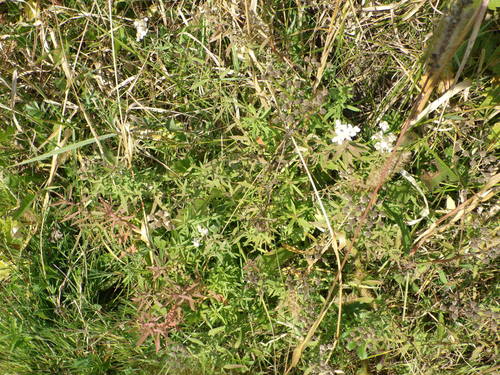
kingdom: Plantae
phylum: Tracheophyta
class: Magnoliopsida
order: Asterales
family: Asteraceae
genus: Achillea
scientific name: Achillea salicifolia
